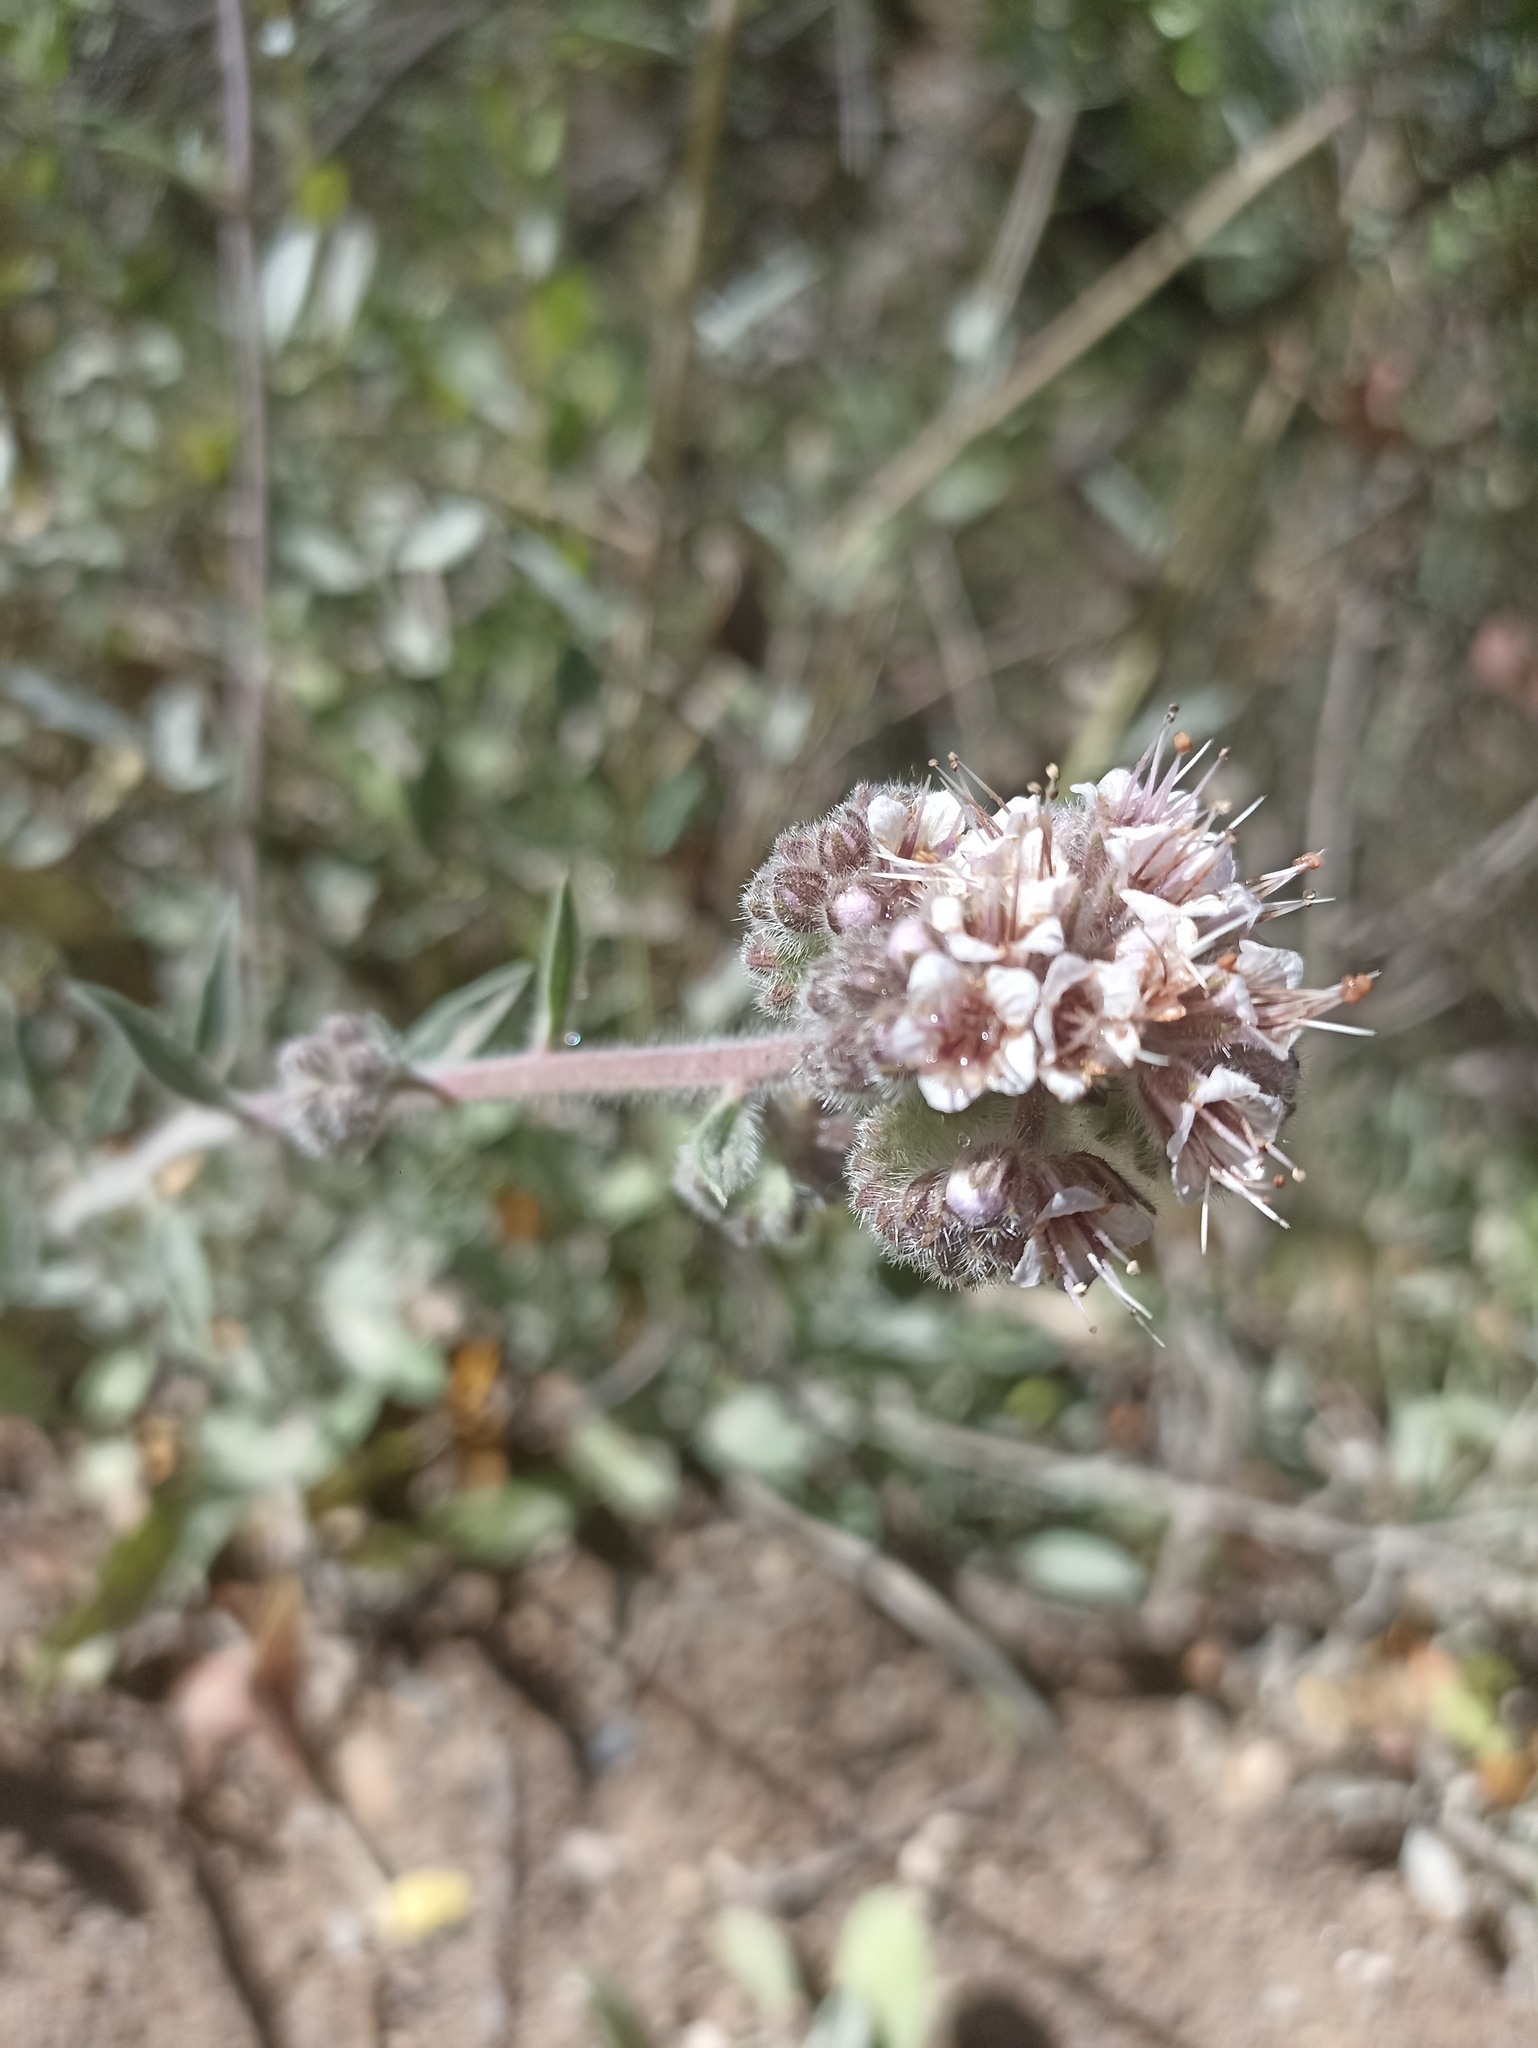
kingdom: Plantae
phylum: Tracheophyta
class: Magnoliopsida
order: Boraginales
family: Hydrophyllaceae
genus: Phacelia
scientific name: Phacelia secunda
